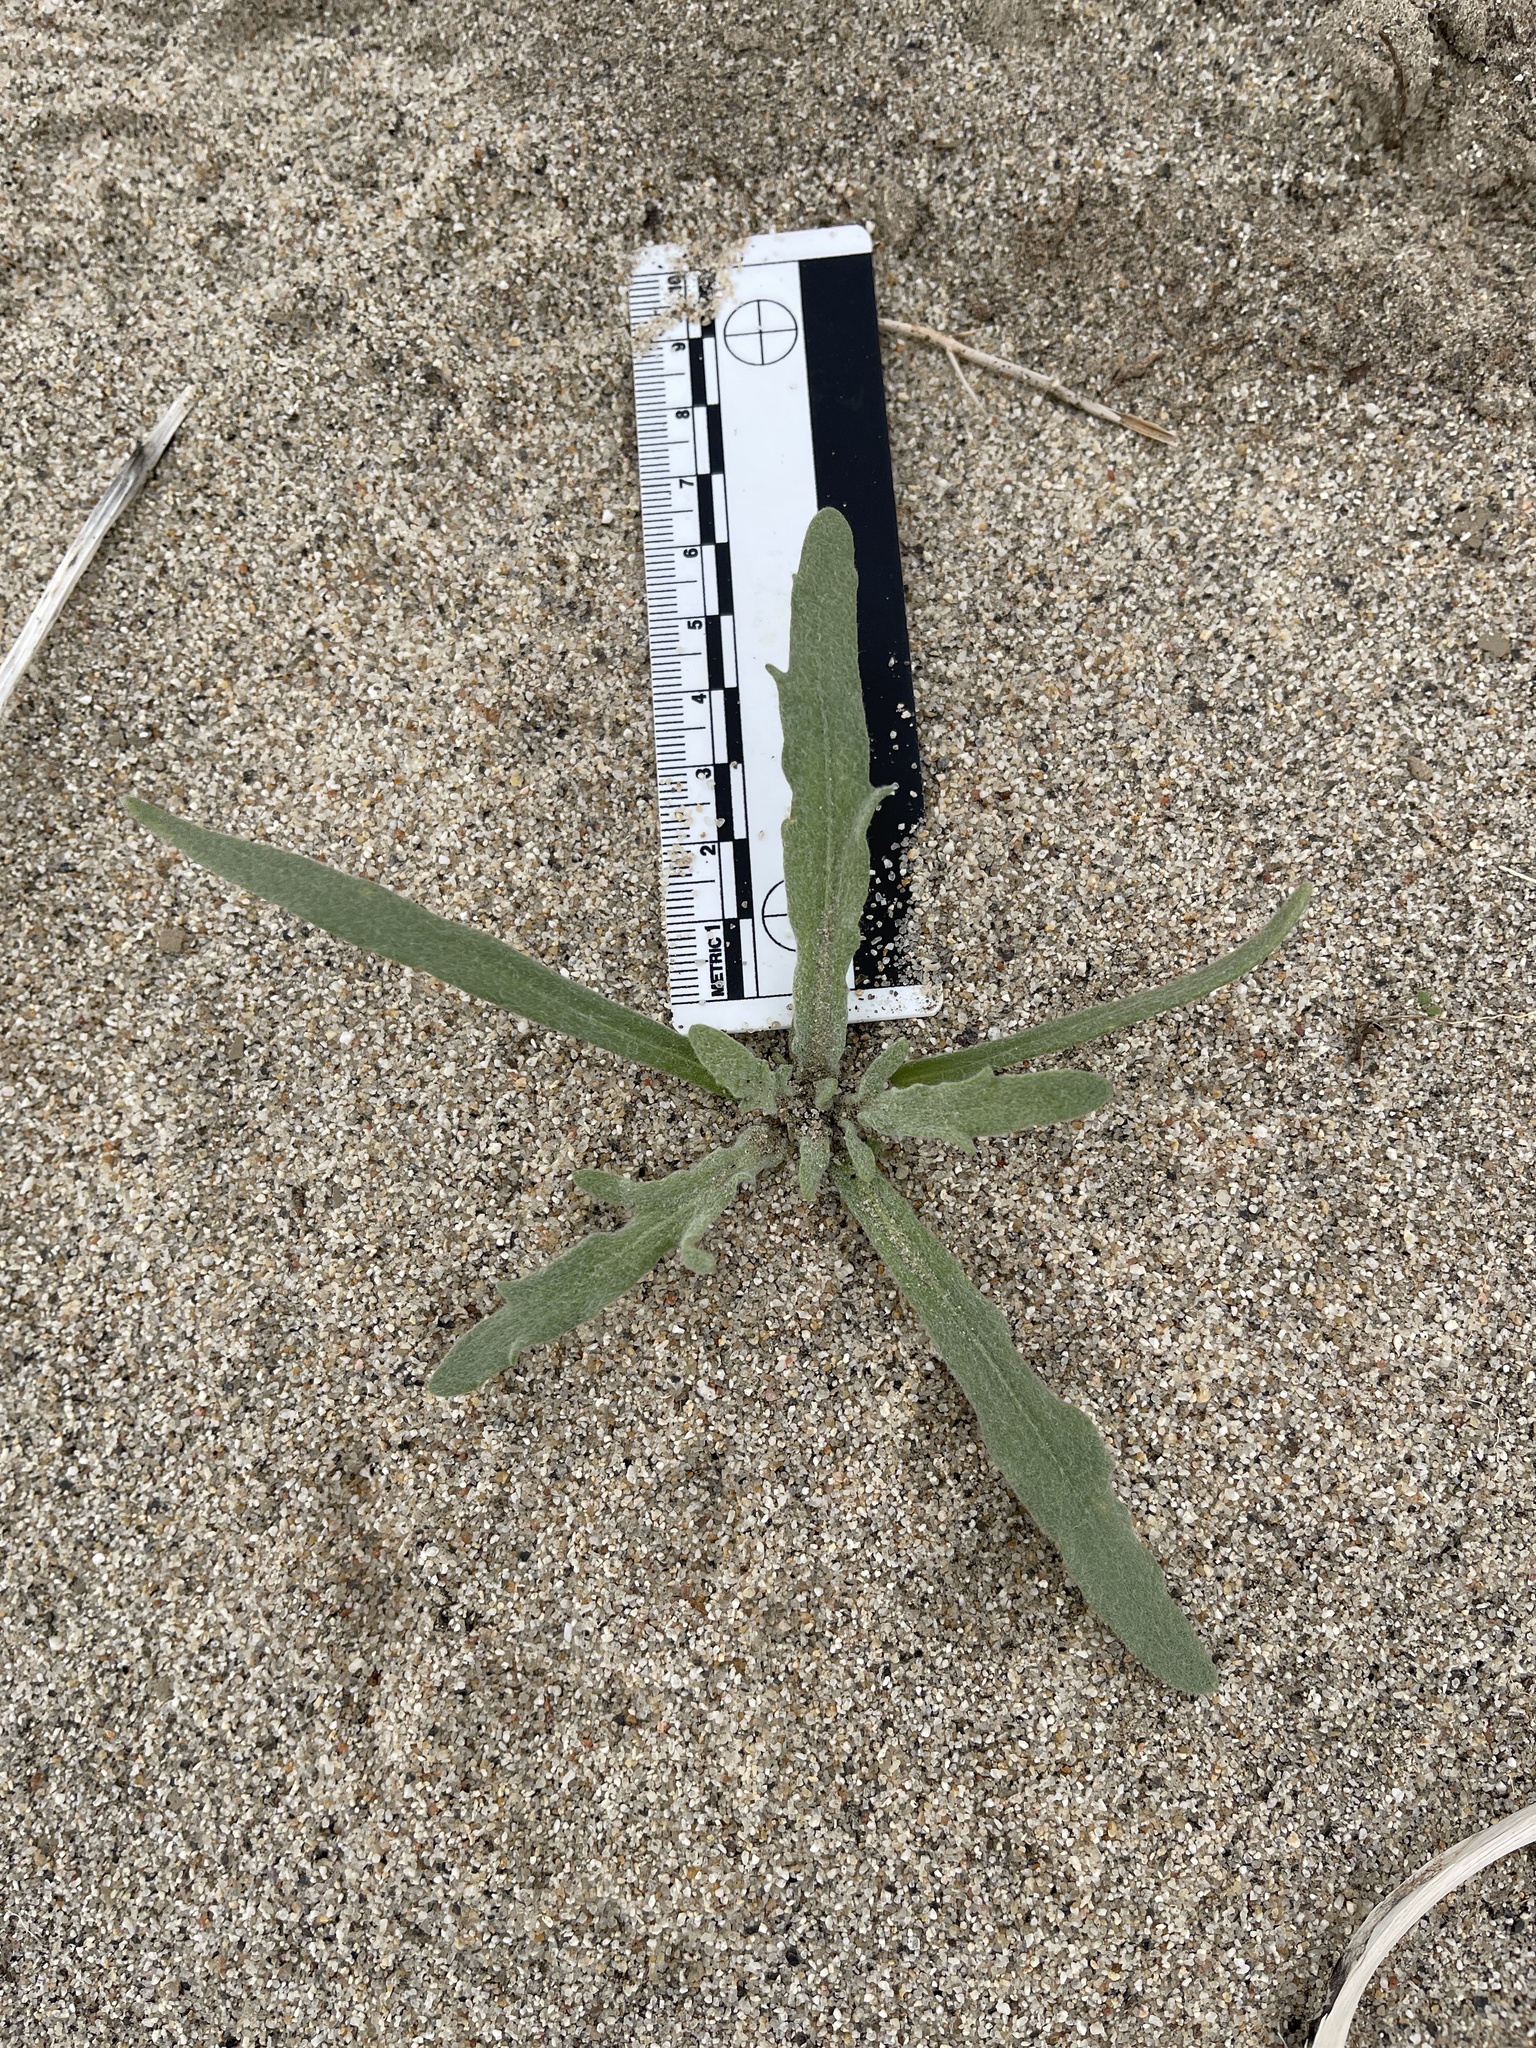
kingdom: Plantae
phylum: Tracheophyta
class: Magnoliopsida
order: Asterales
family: Asteraceae
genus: Baileya
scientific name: Baileya pauciradiata
